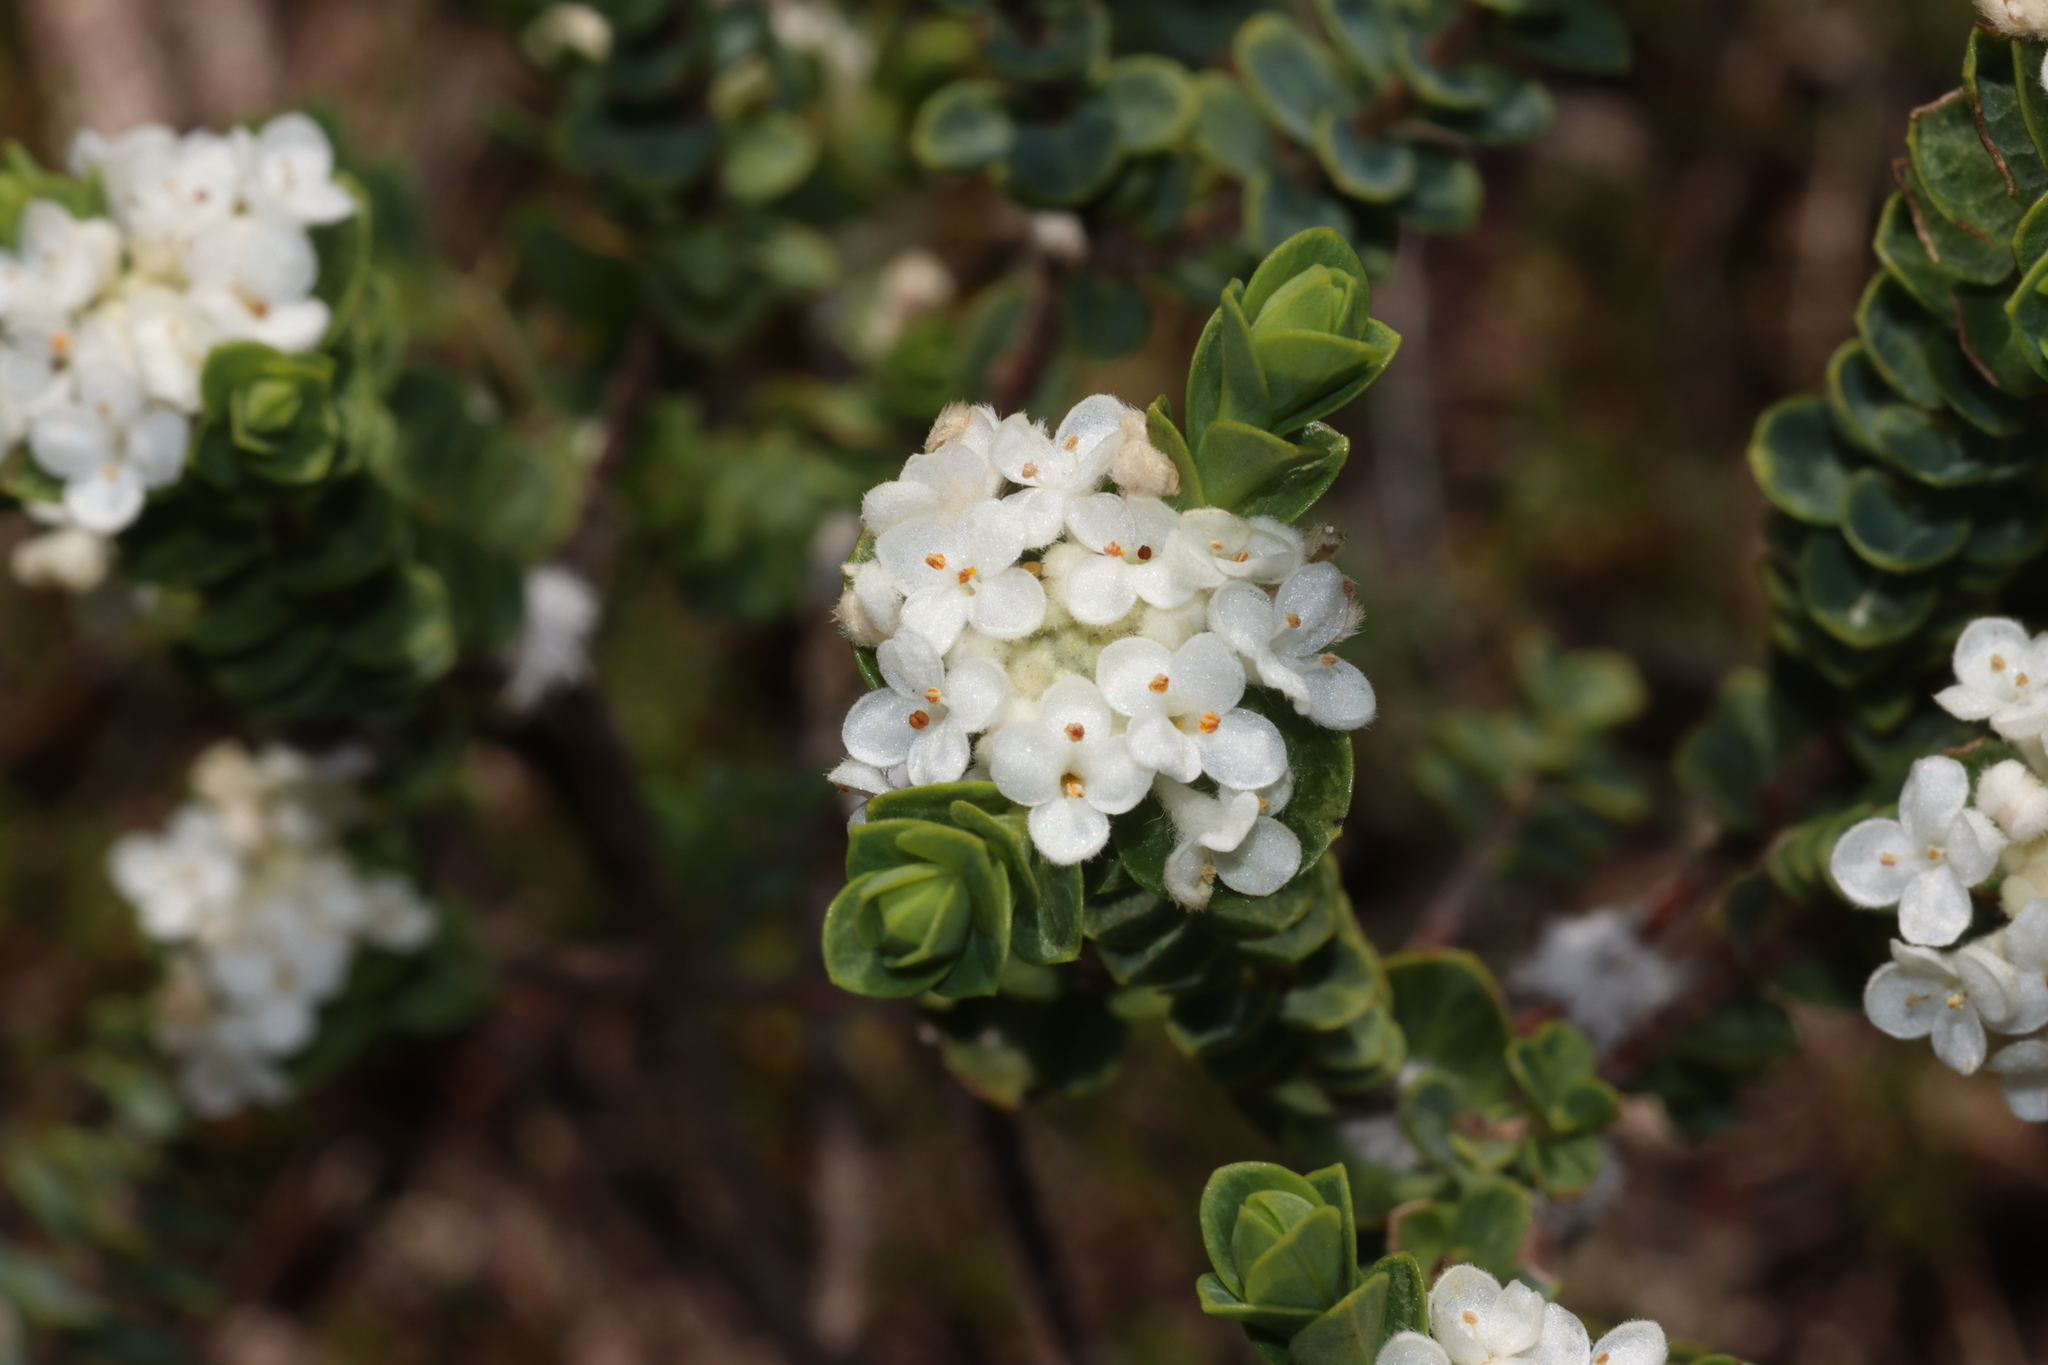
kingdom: Plantae
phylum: Tracheophyta
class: Magnoliopsida
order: Malvales
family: Thymelaeaceae
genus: Pimelea
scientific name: Pimelea flava
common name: Yellow riceflower
